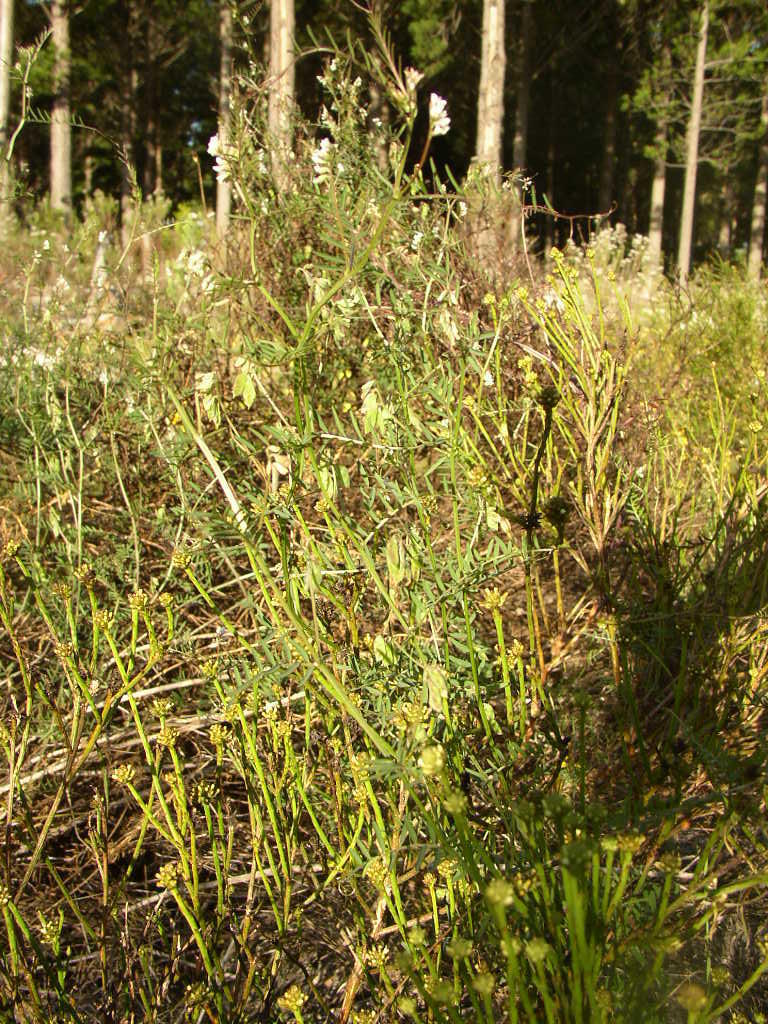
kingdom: Plantae
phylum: Tracheophyta
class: Magnoliopsida
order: Fabales
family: Fabaceae
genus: Vicia
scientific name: Vicia hirsuta
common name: Tiny vetch
